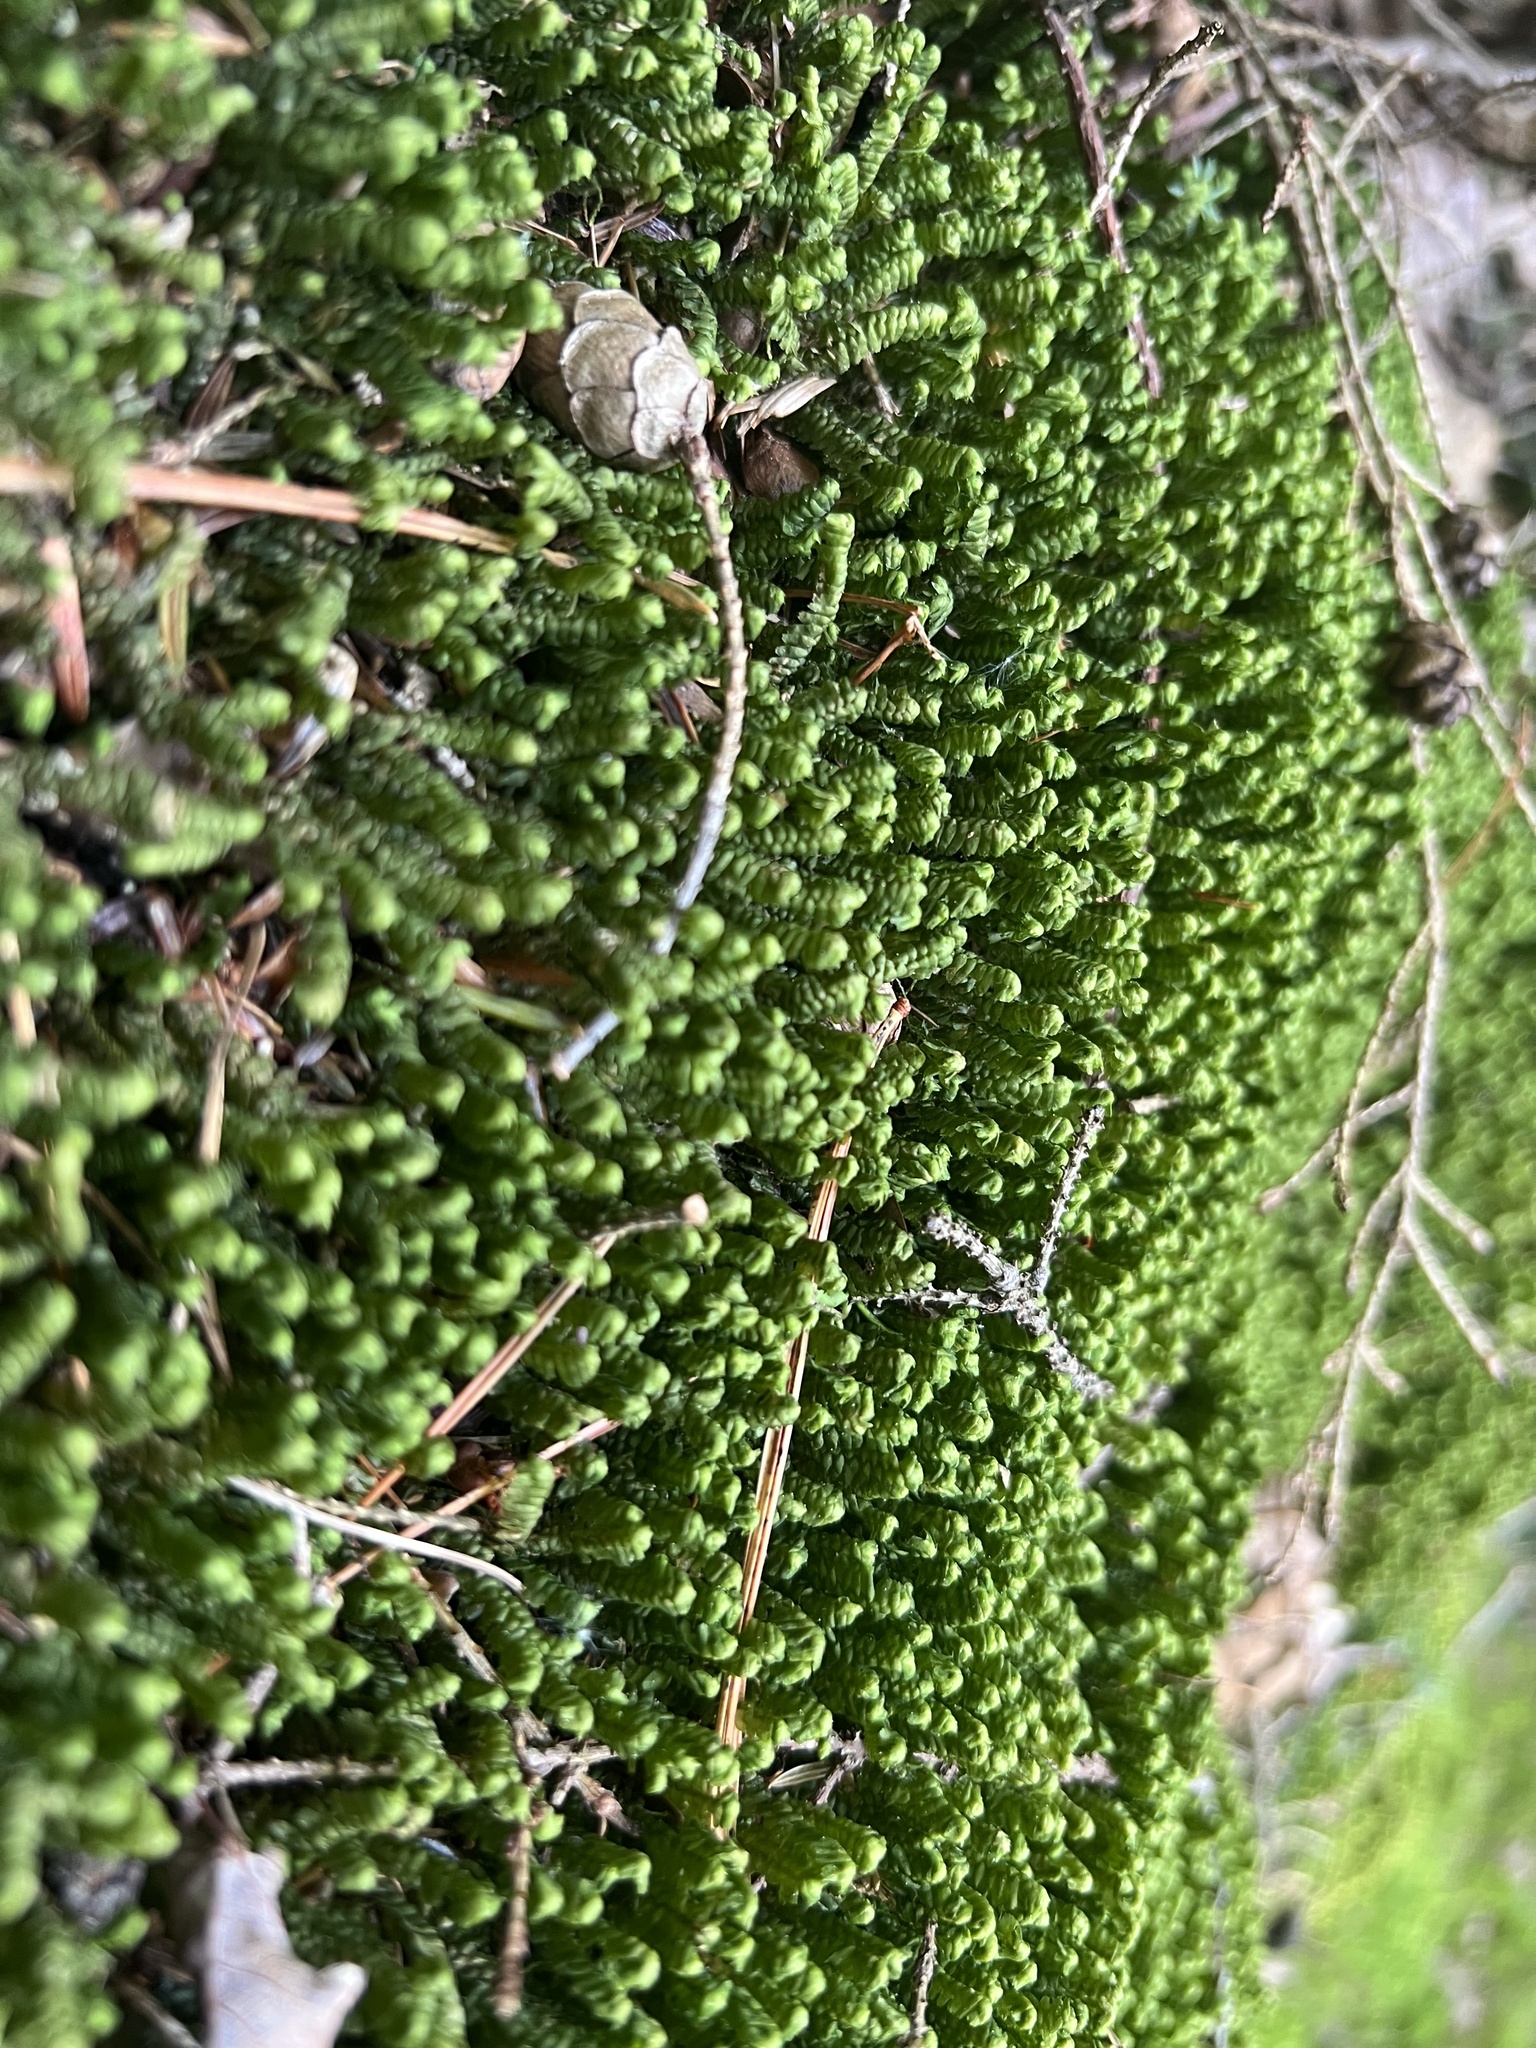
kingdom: Plantae
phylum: Marchantiophyta
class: Jungermanniopsida
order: Jungermanniales
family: Lepidoziaceae
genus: Bazzania
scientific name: Bazzania trilobata
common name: Three-lobed whipwort
